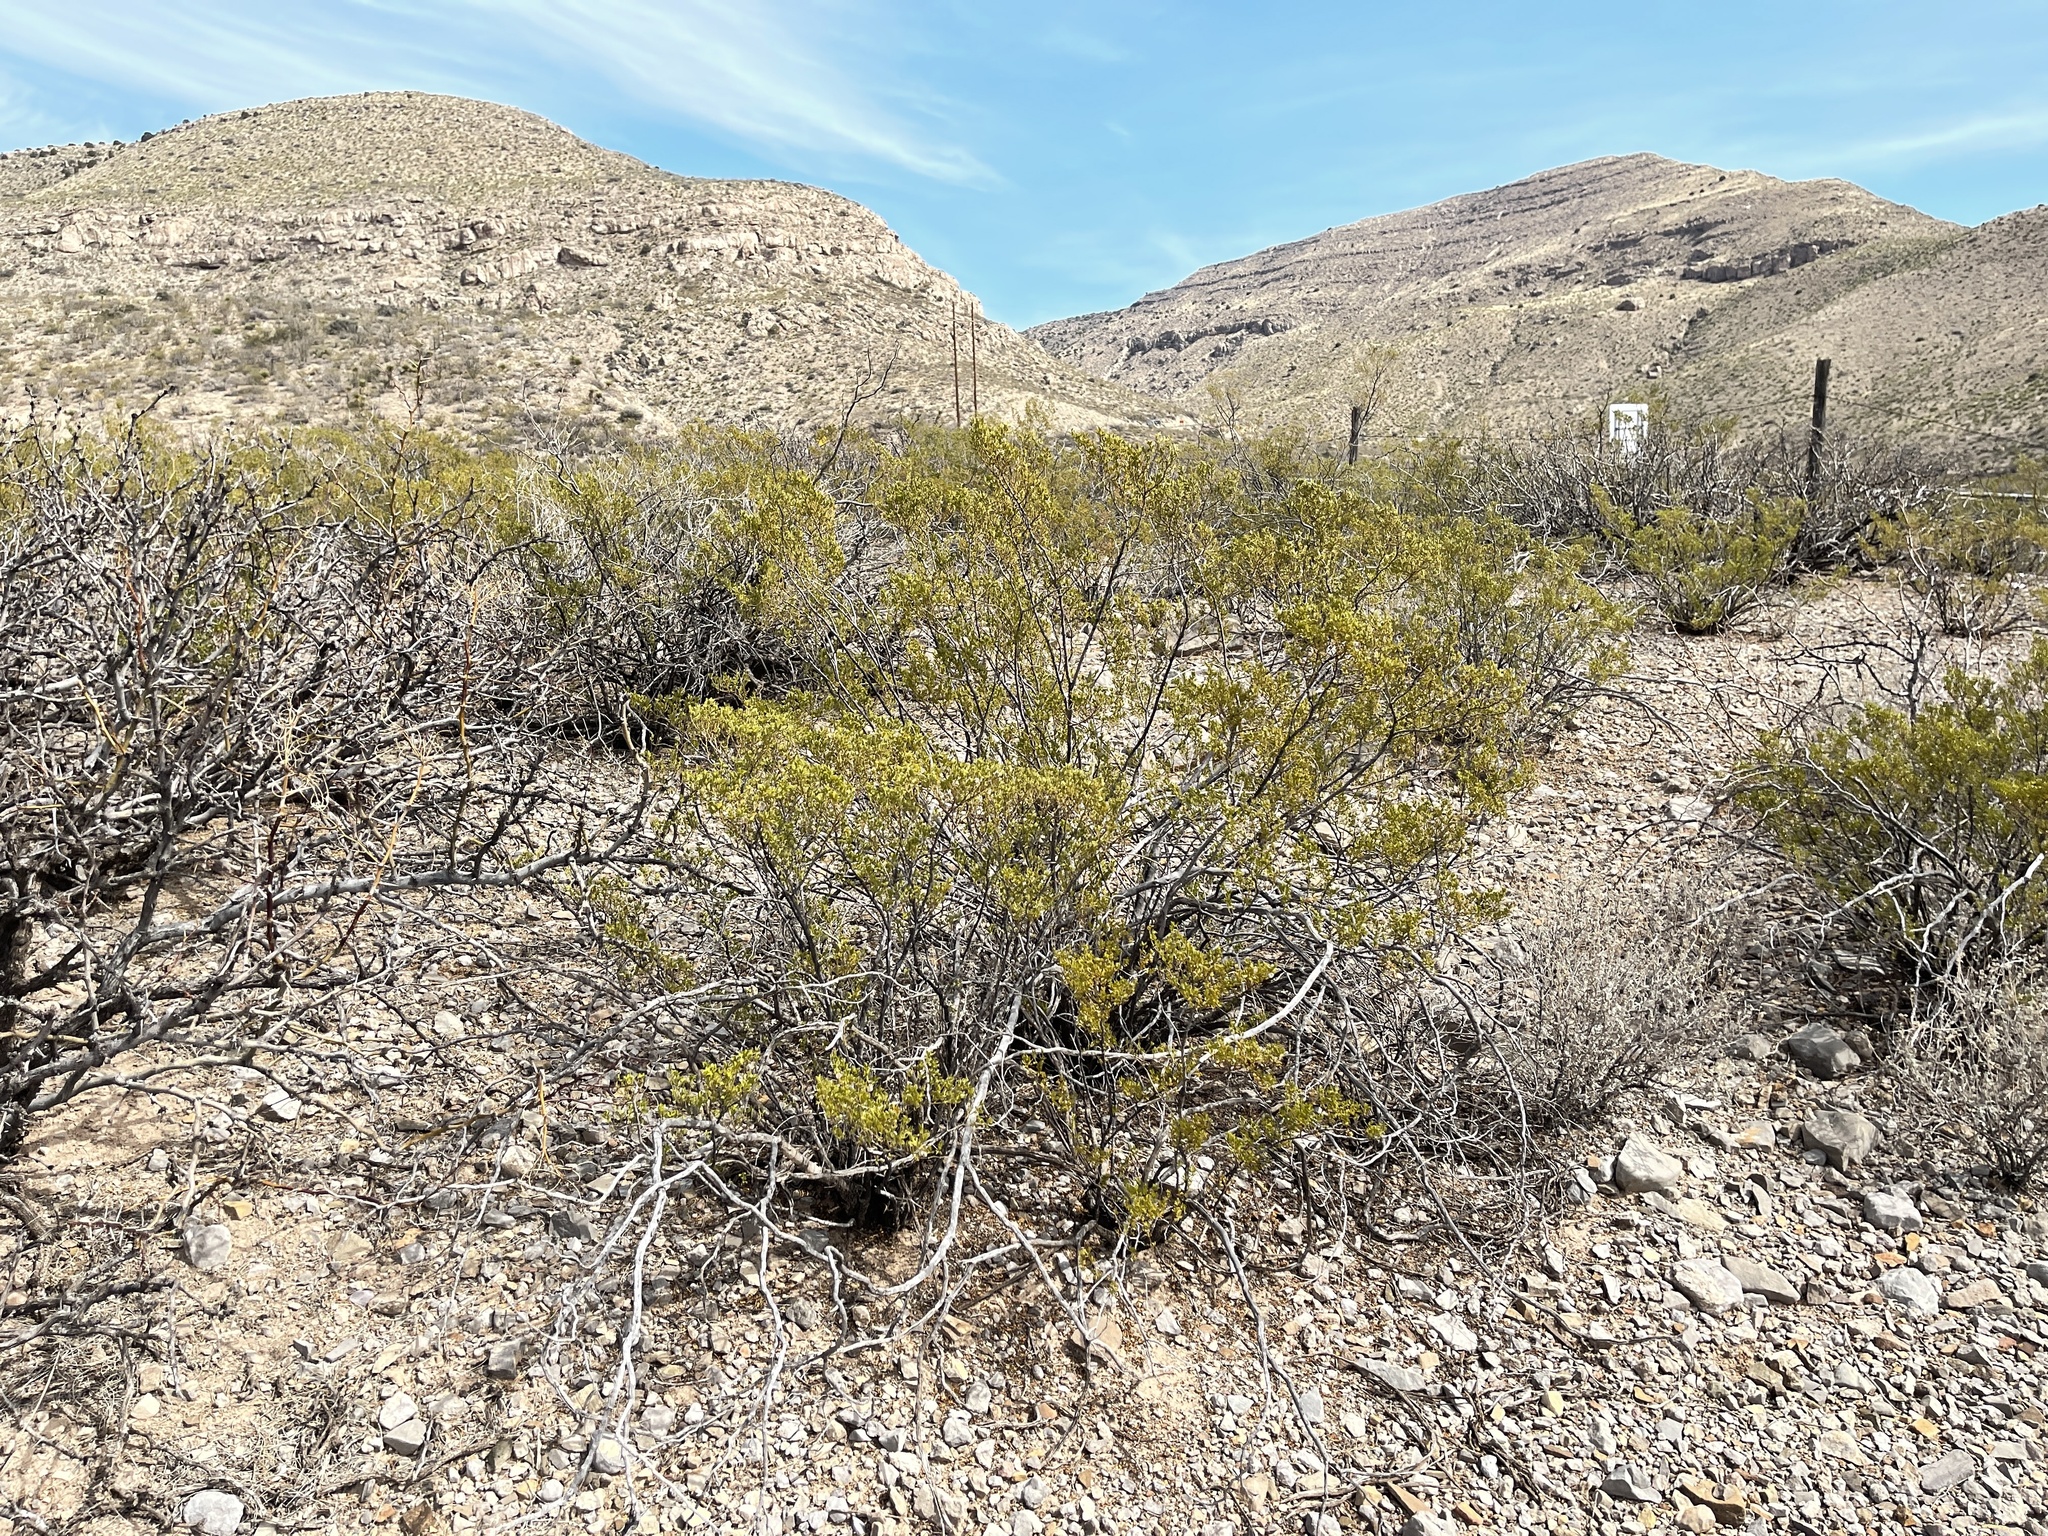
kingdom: Plantae
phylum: Tracheophyta
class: Magnoliopsida
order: Zygophyllales
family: Zygophyllaceae
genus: Larrea
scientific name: Larrea tridentata
